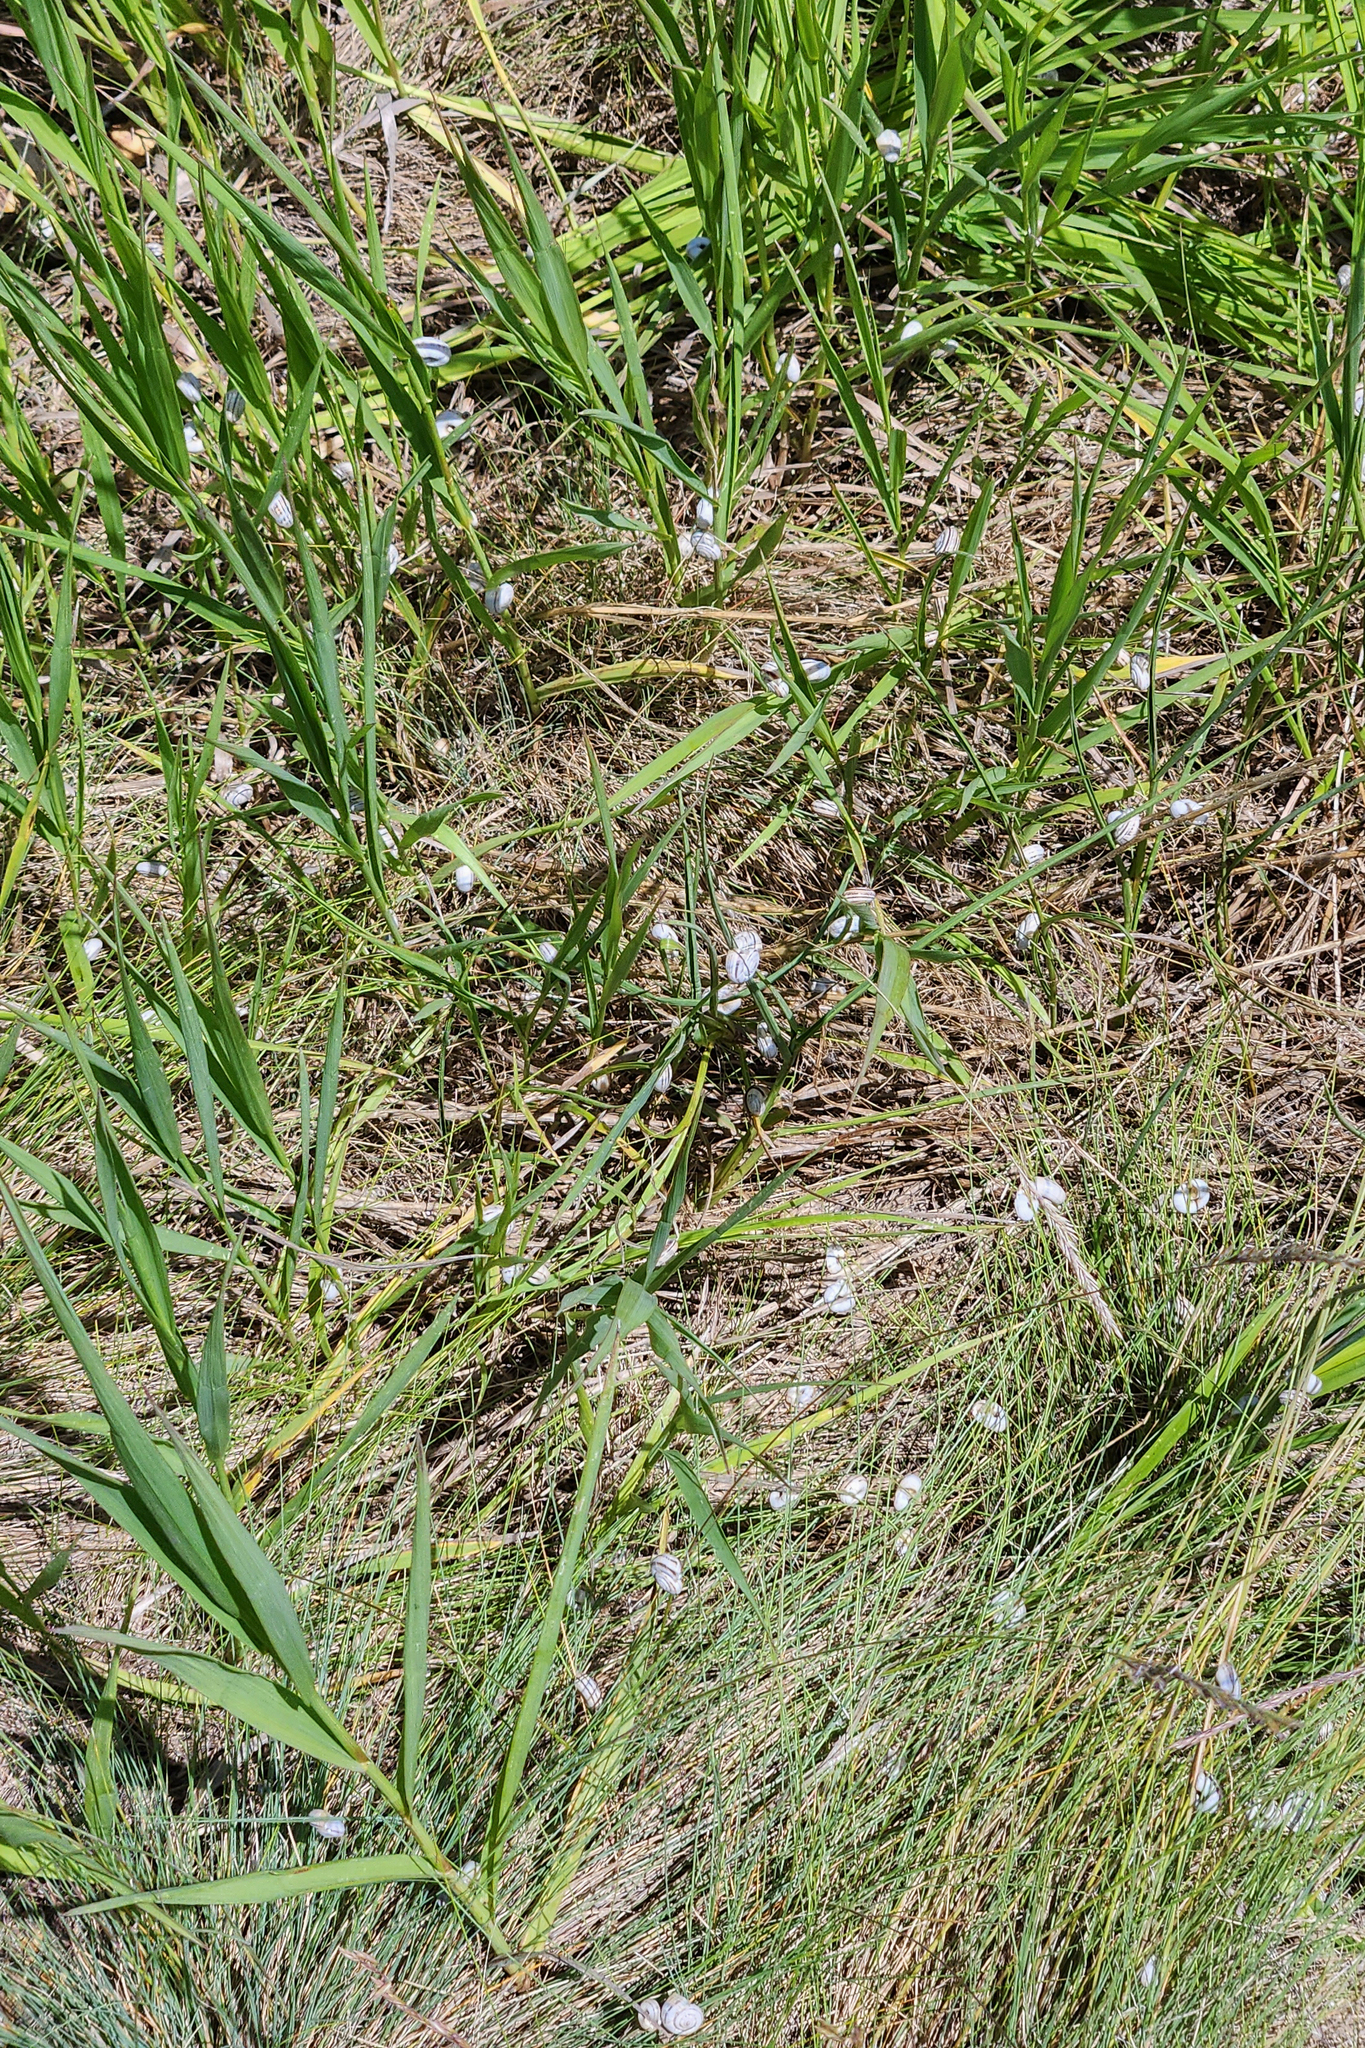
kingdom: Animalia
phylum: Mollusca
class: Gastropoda
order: Stylommatophora
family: Geomitridae
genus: Xerolenta
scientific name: Xerolenta obvia
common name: White heath snail
